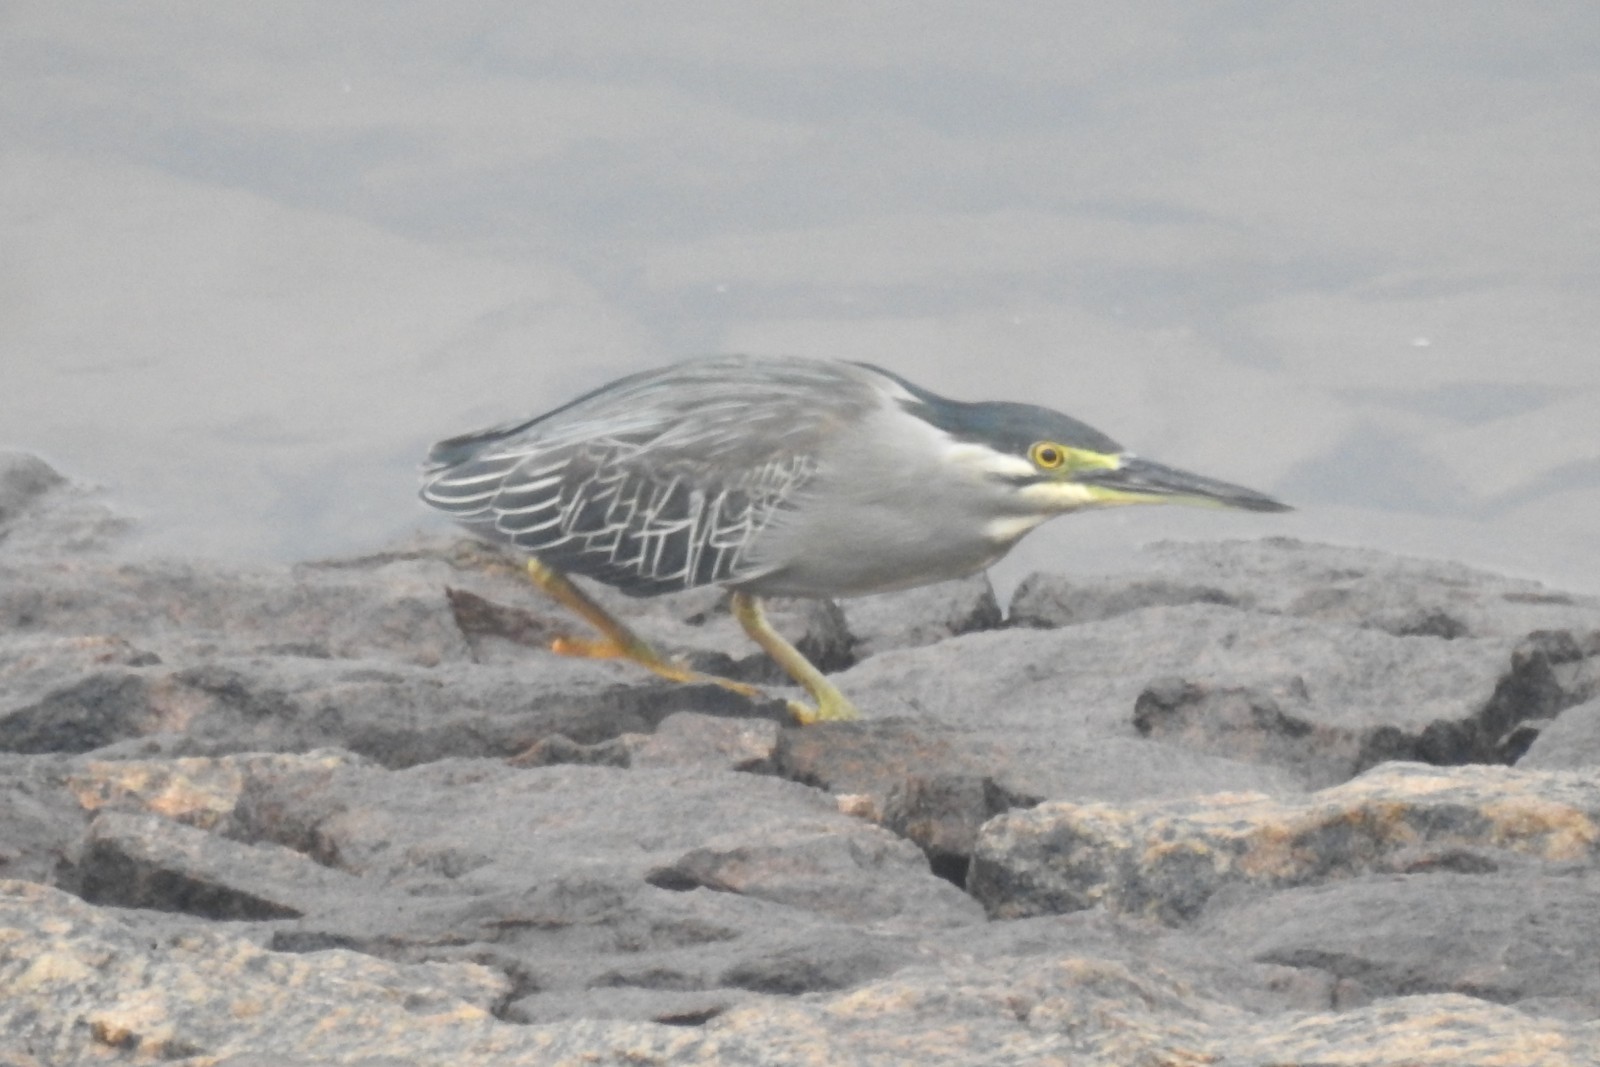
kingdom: Animalia
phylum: Chordata
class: Aves
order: Pelecaniformes
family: Ardeidae
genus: Butorides
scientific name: Butorides striata
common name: Striated heron
